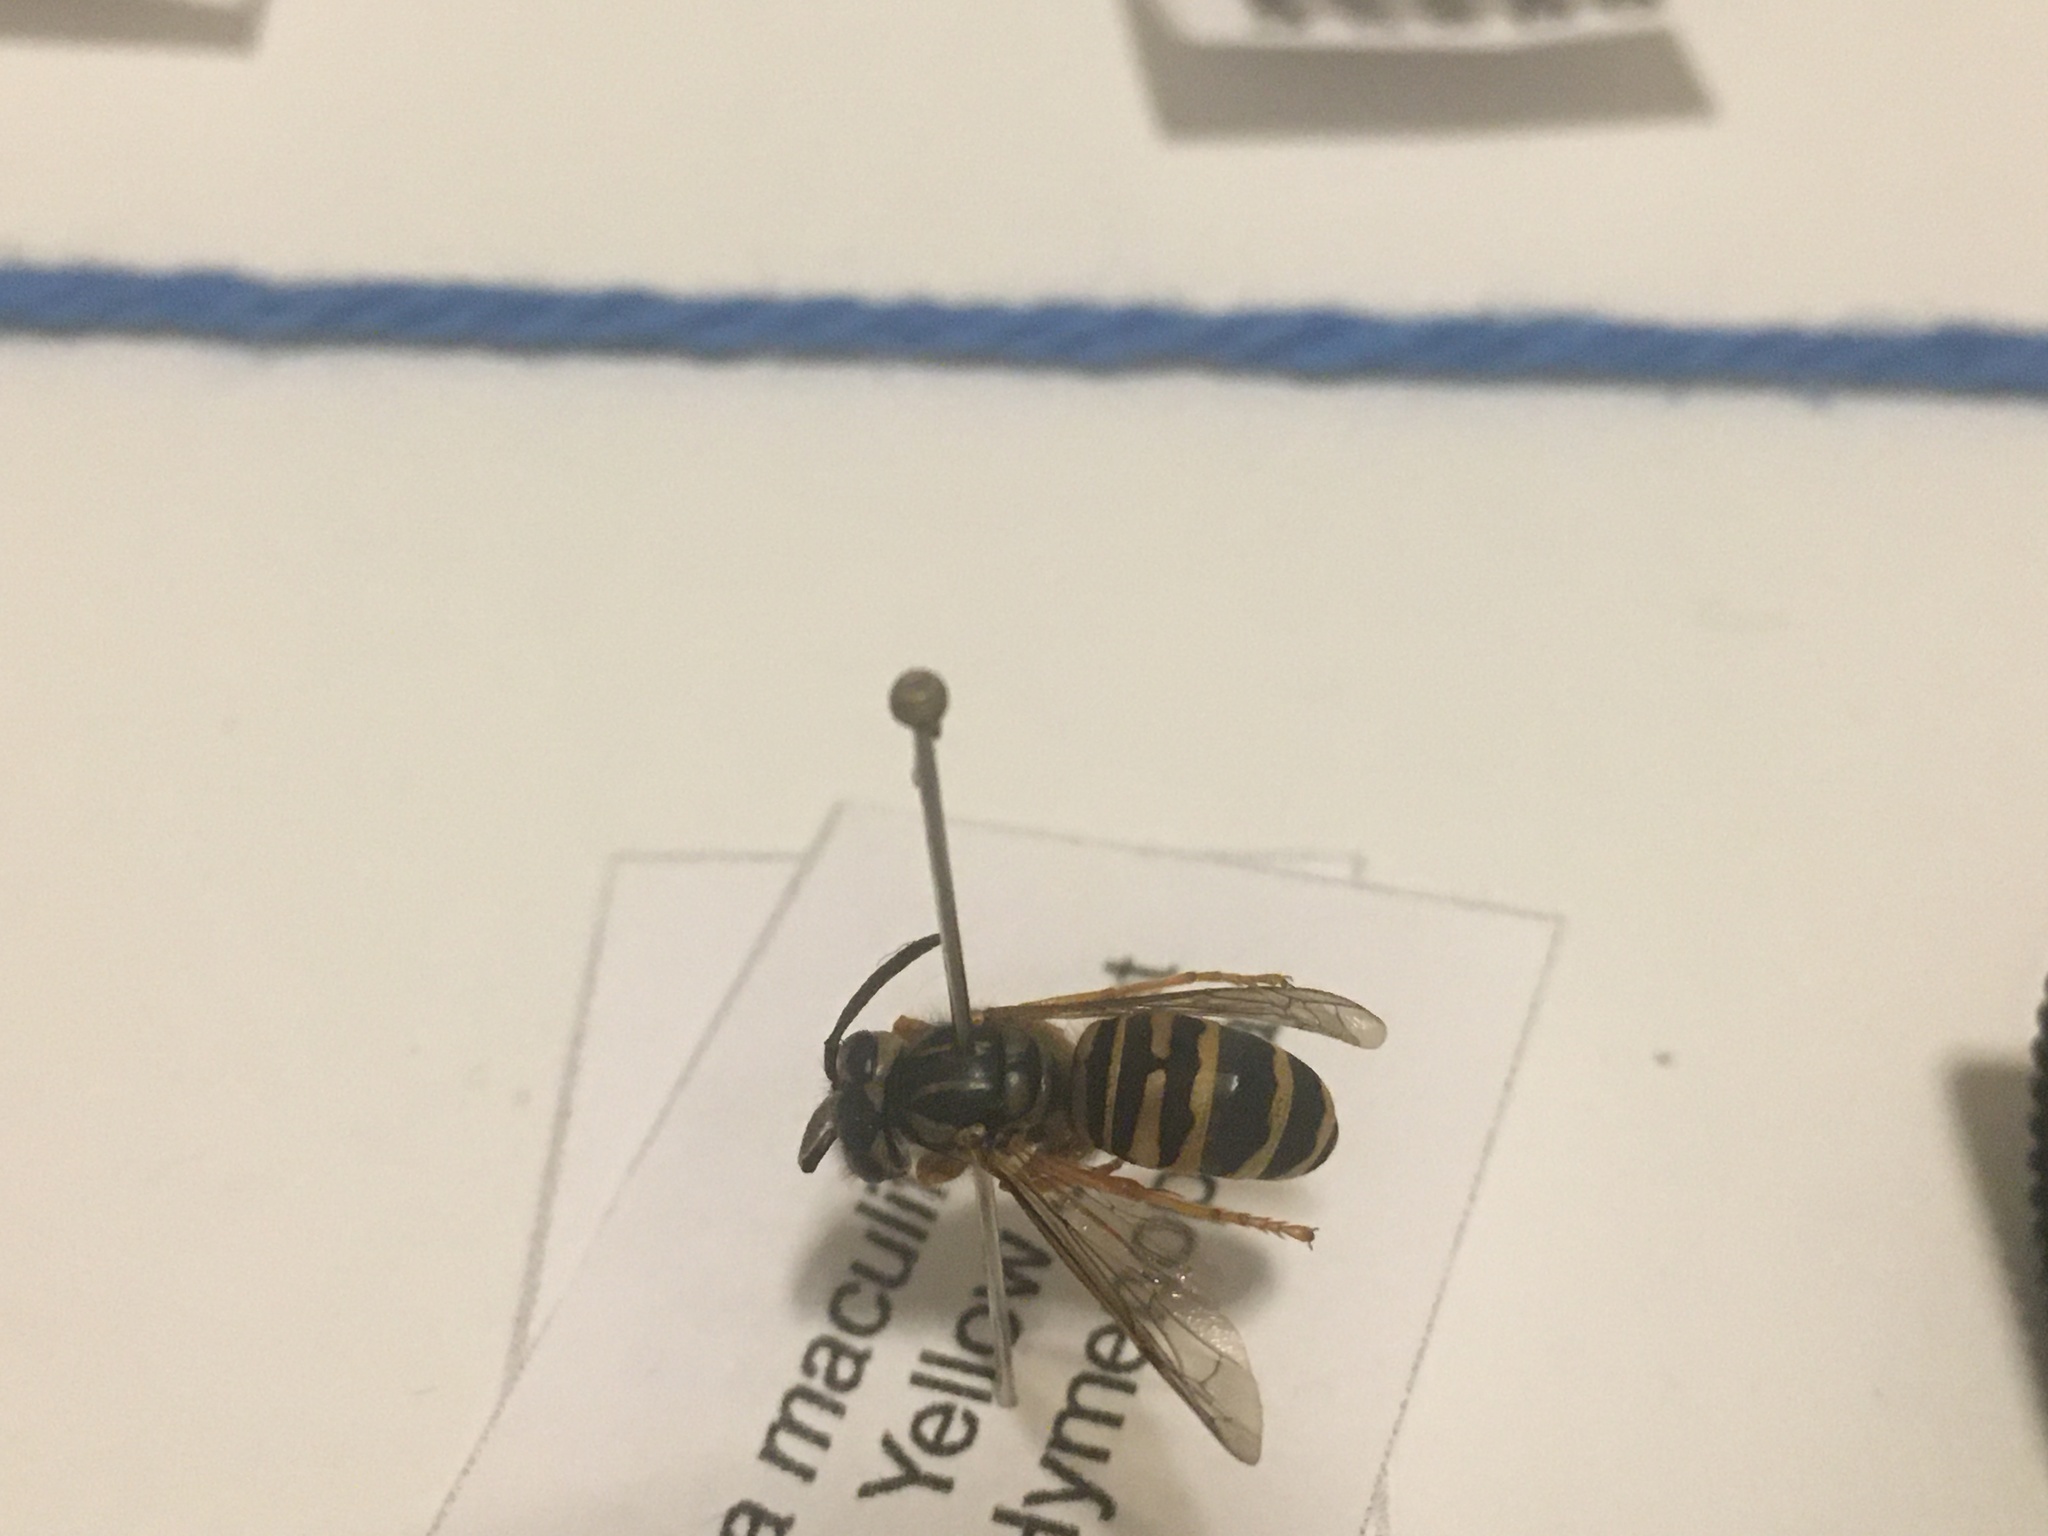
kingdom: Animalia
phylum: Arthropoda
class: Insecta
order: Hymenoptera
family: Vespidae
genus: Vespula
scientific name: Vespula squamosa
